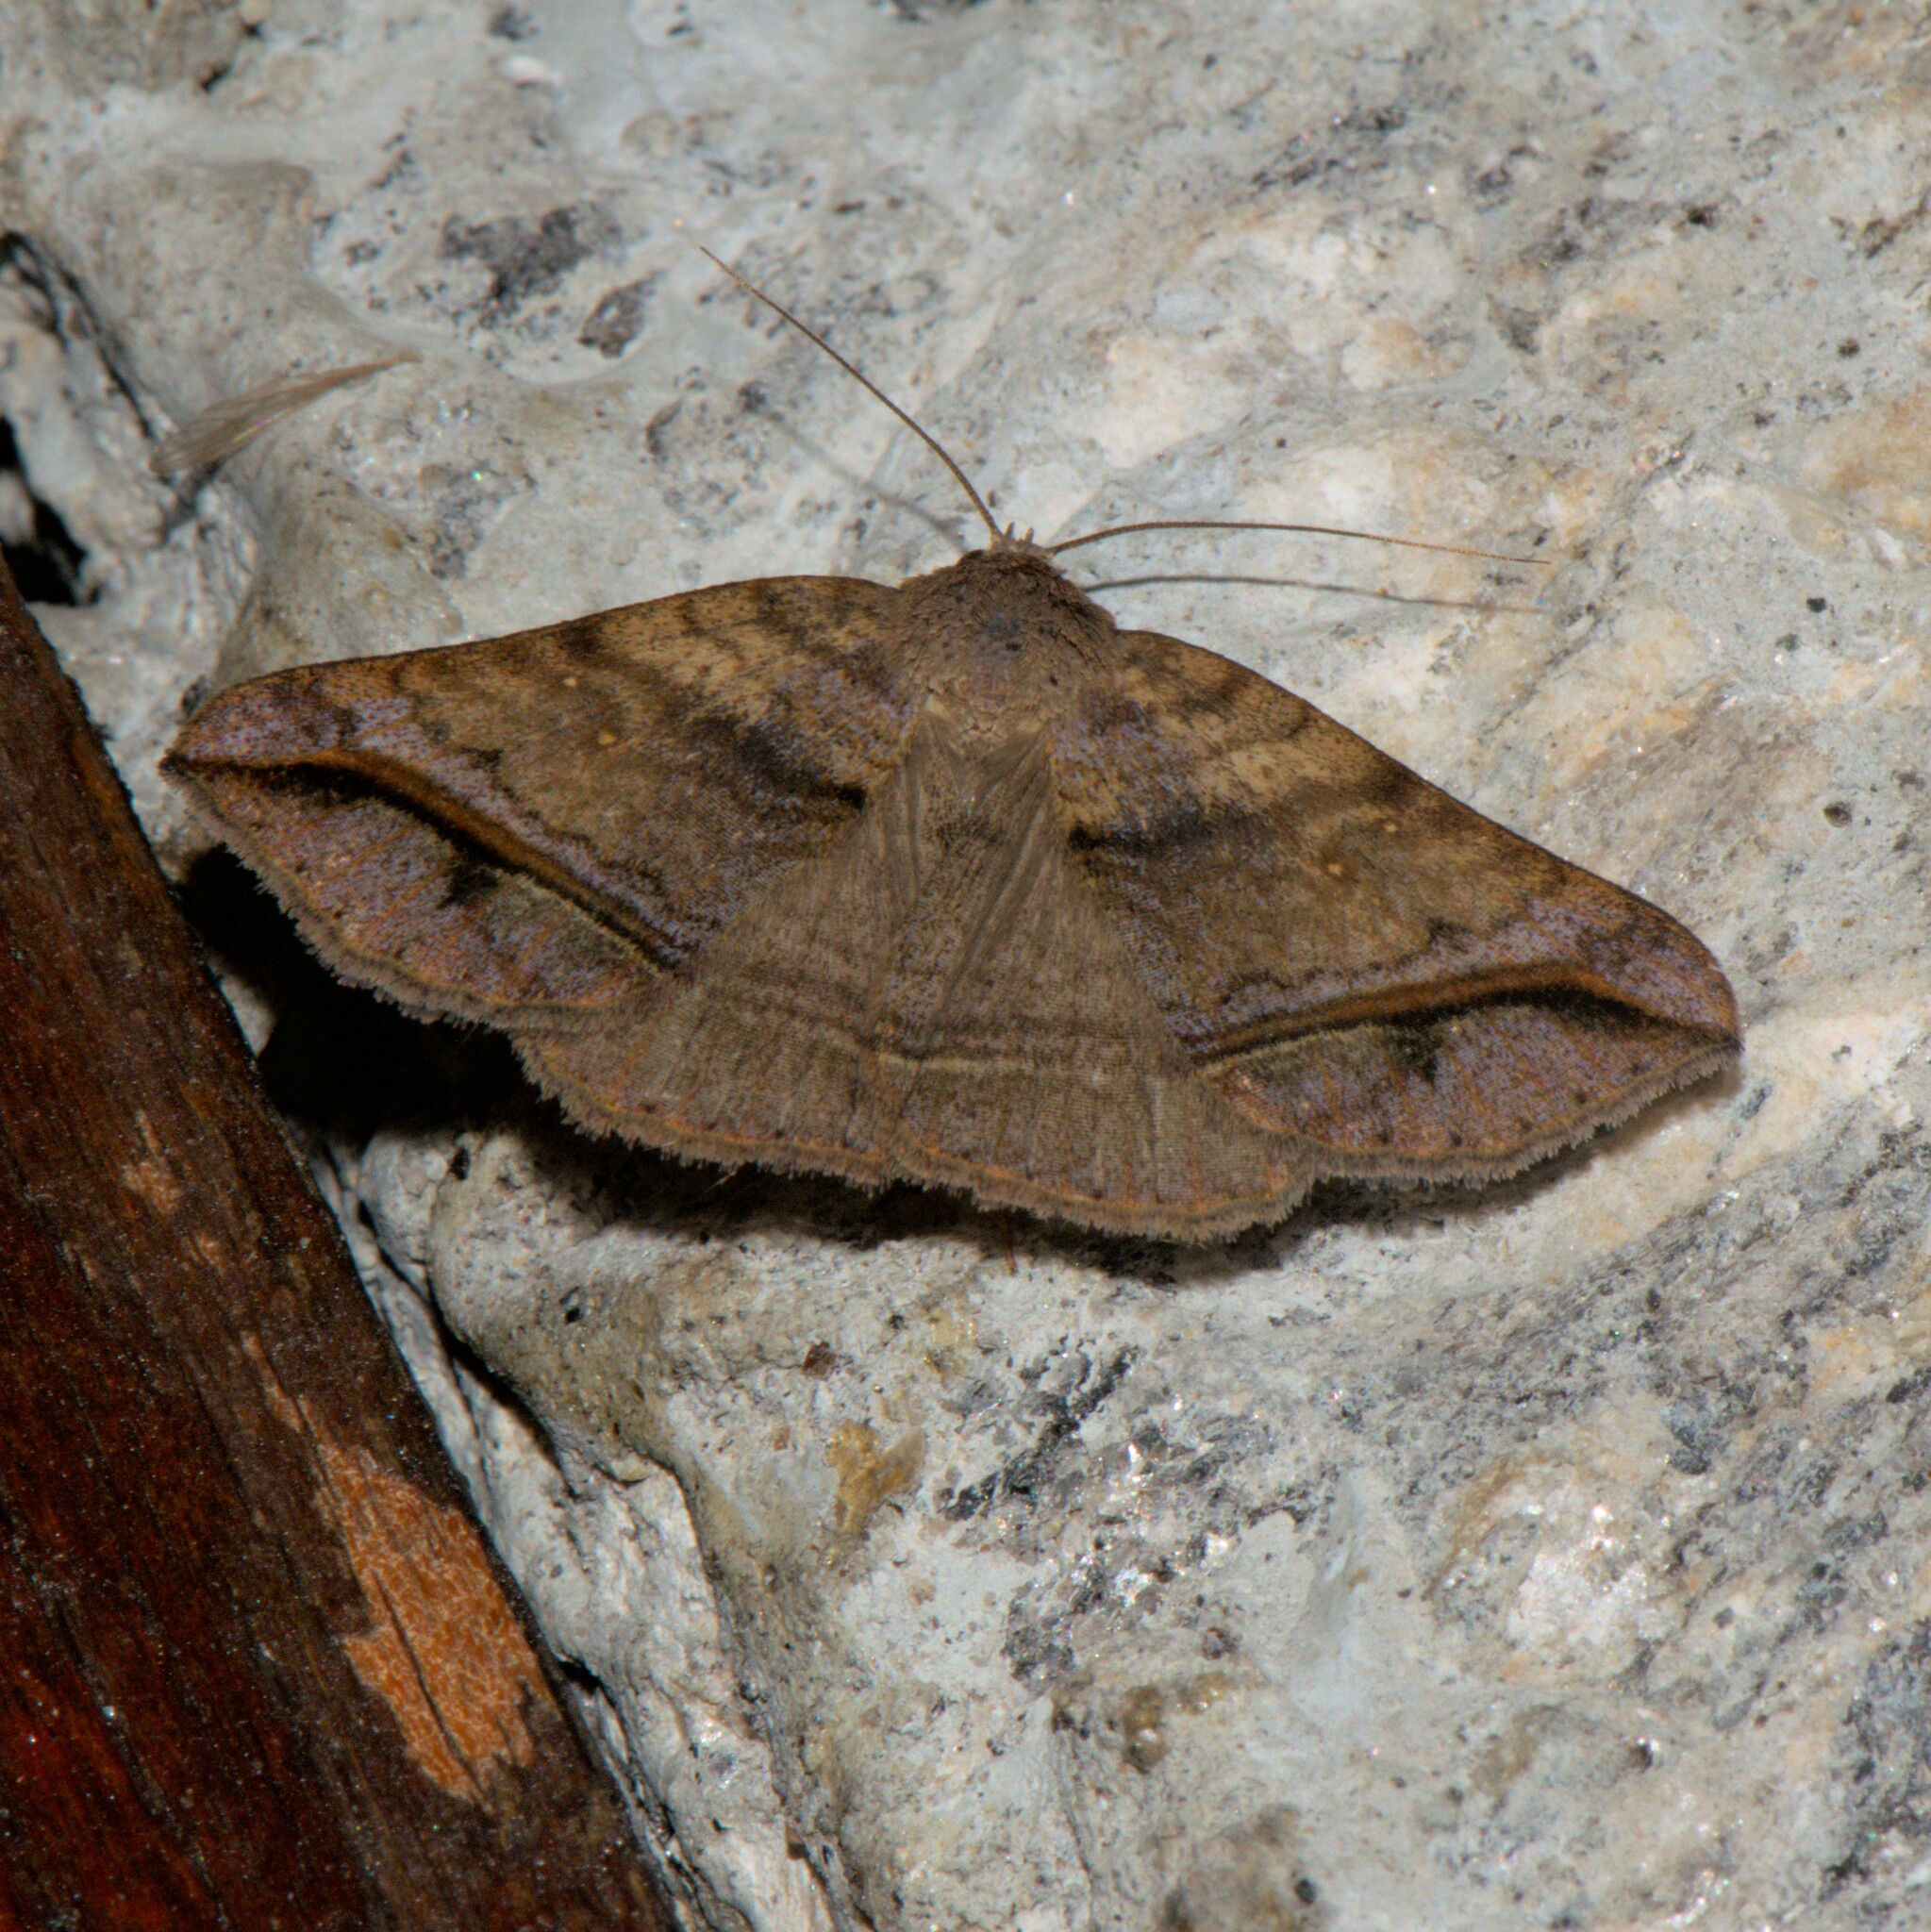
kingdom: Animalia
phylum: Arthropoda
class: Insecta
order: Lepidoptera
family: Erebidae
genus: Blasticorhinus
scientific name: Blasticorhinus
